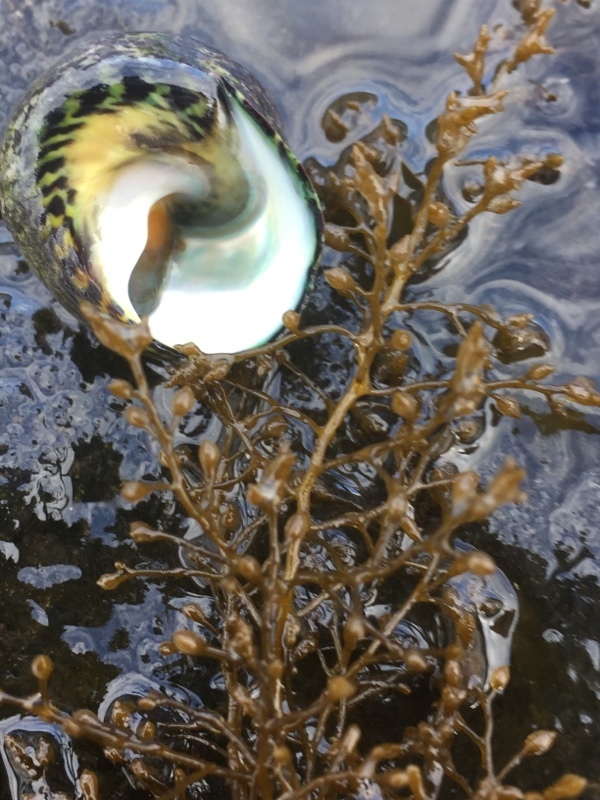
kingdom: Animalia
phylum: Mollusca
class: Gastropoda
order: Trochida
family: Trochidae
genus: Phorcus
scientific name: Phorcus sauciatus
